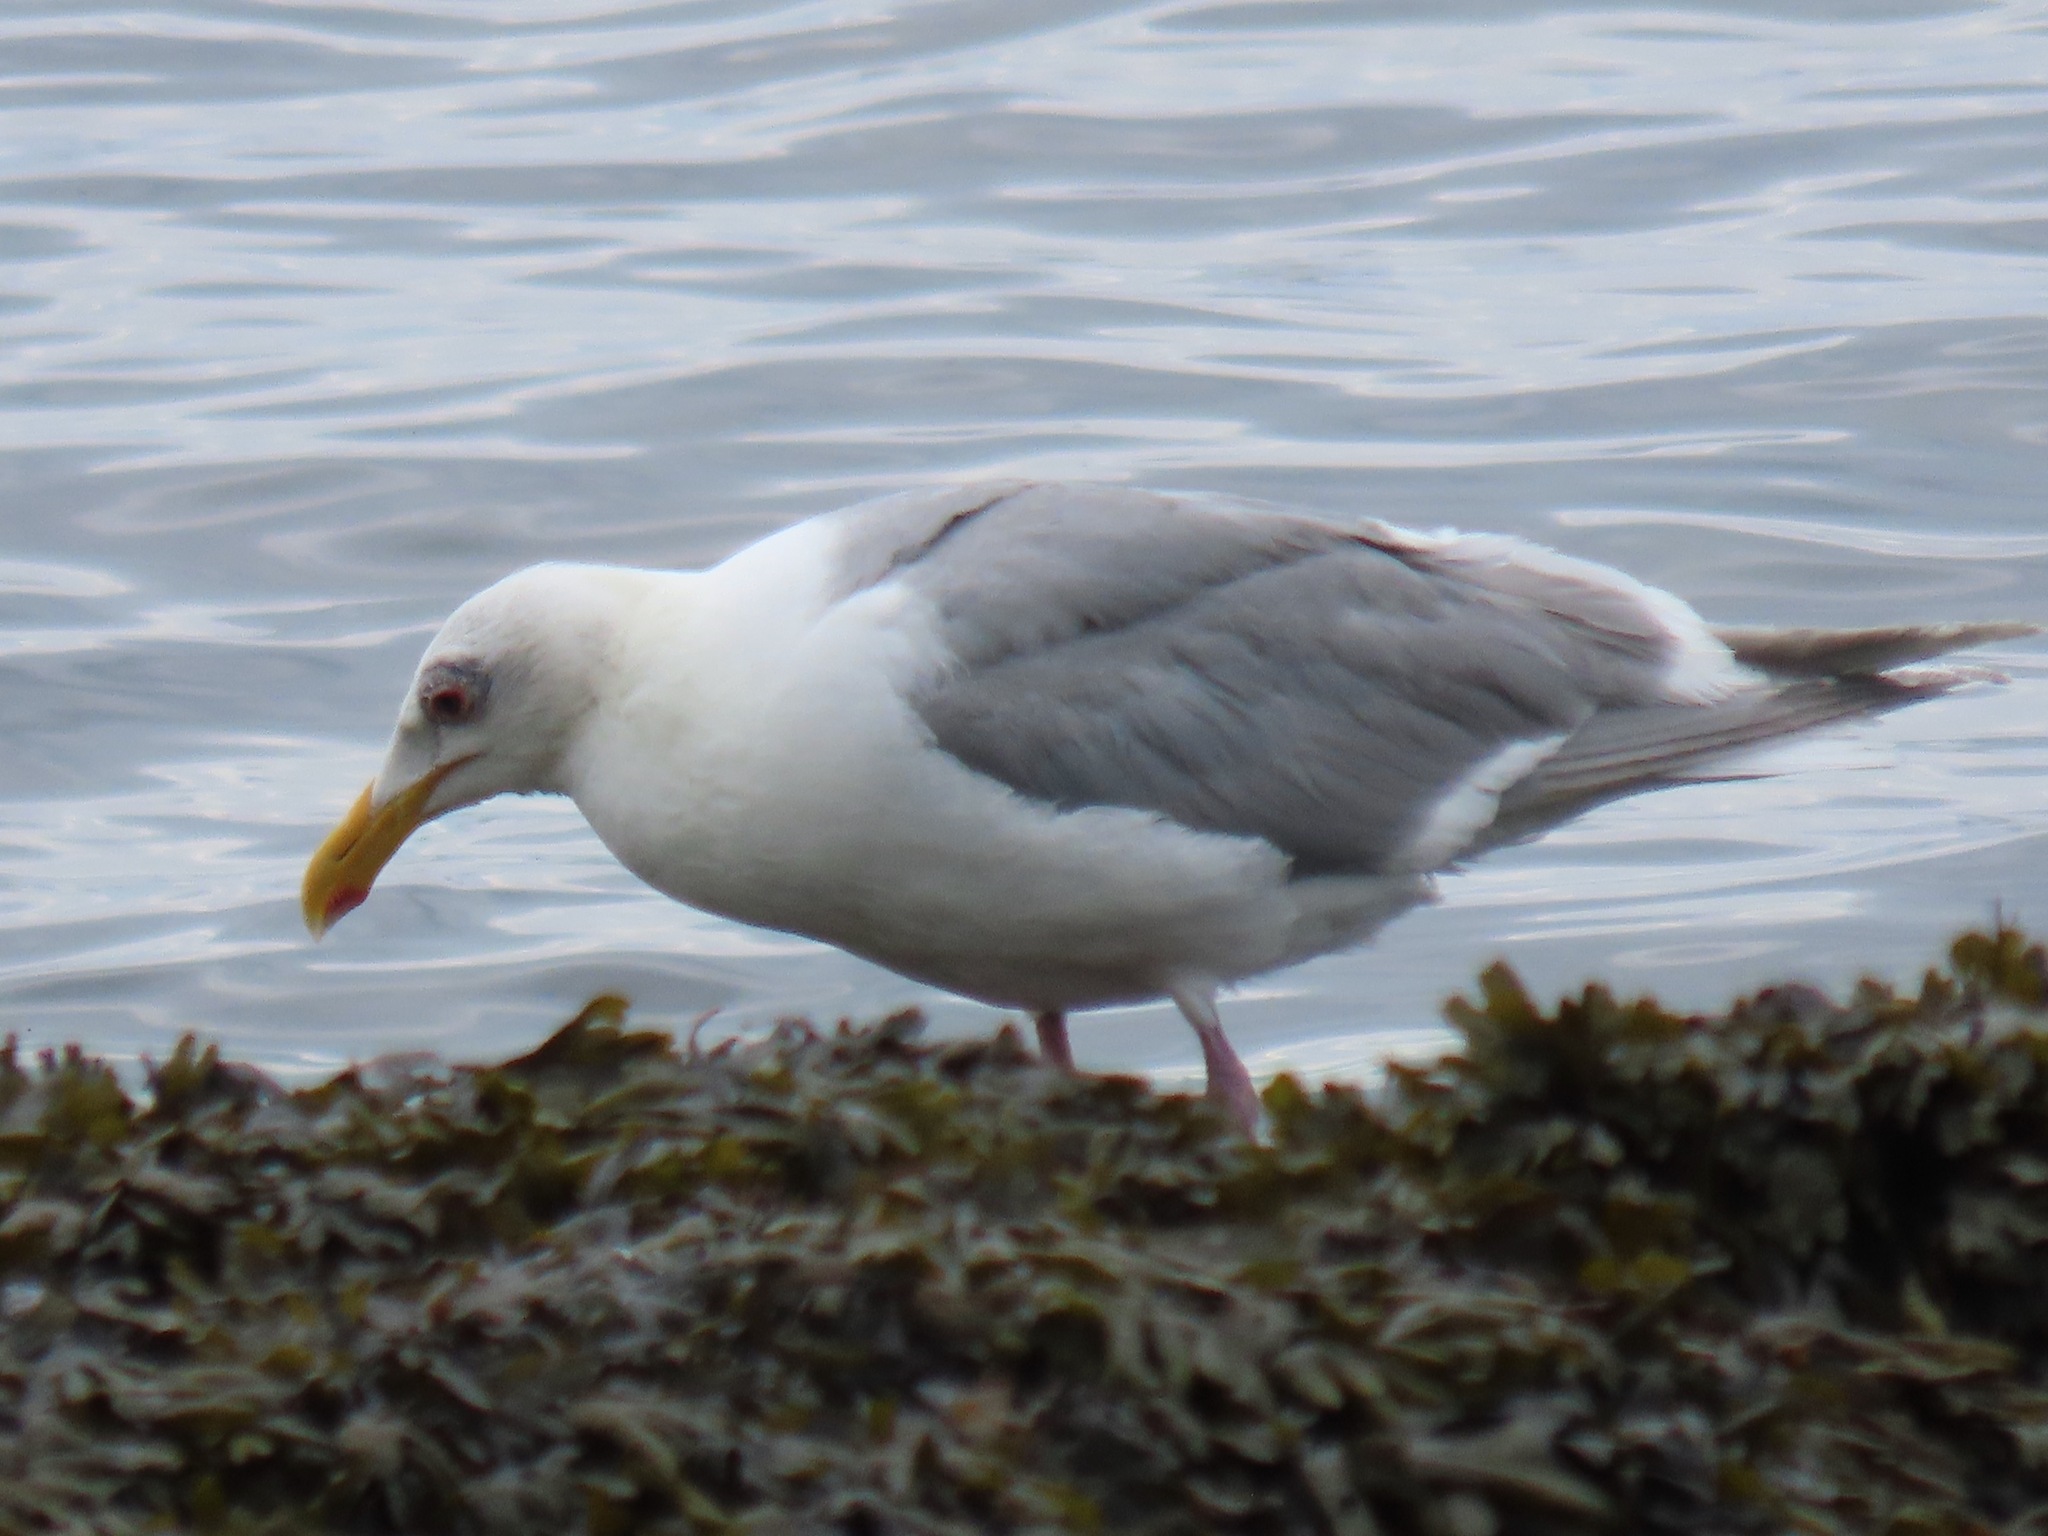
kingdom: Animalia
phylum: Chordata
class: Aves
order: Charadriiformes
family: Laridae
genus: Larus
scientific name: Larus glaucescens
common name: Glaucous-winged gull
